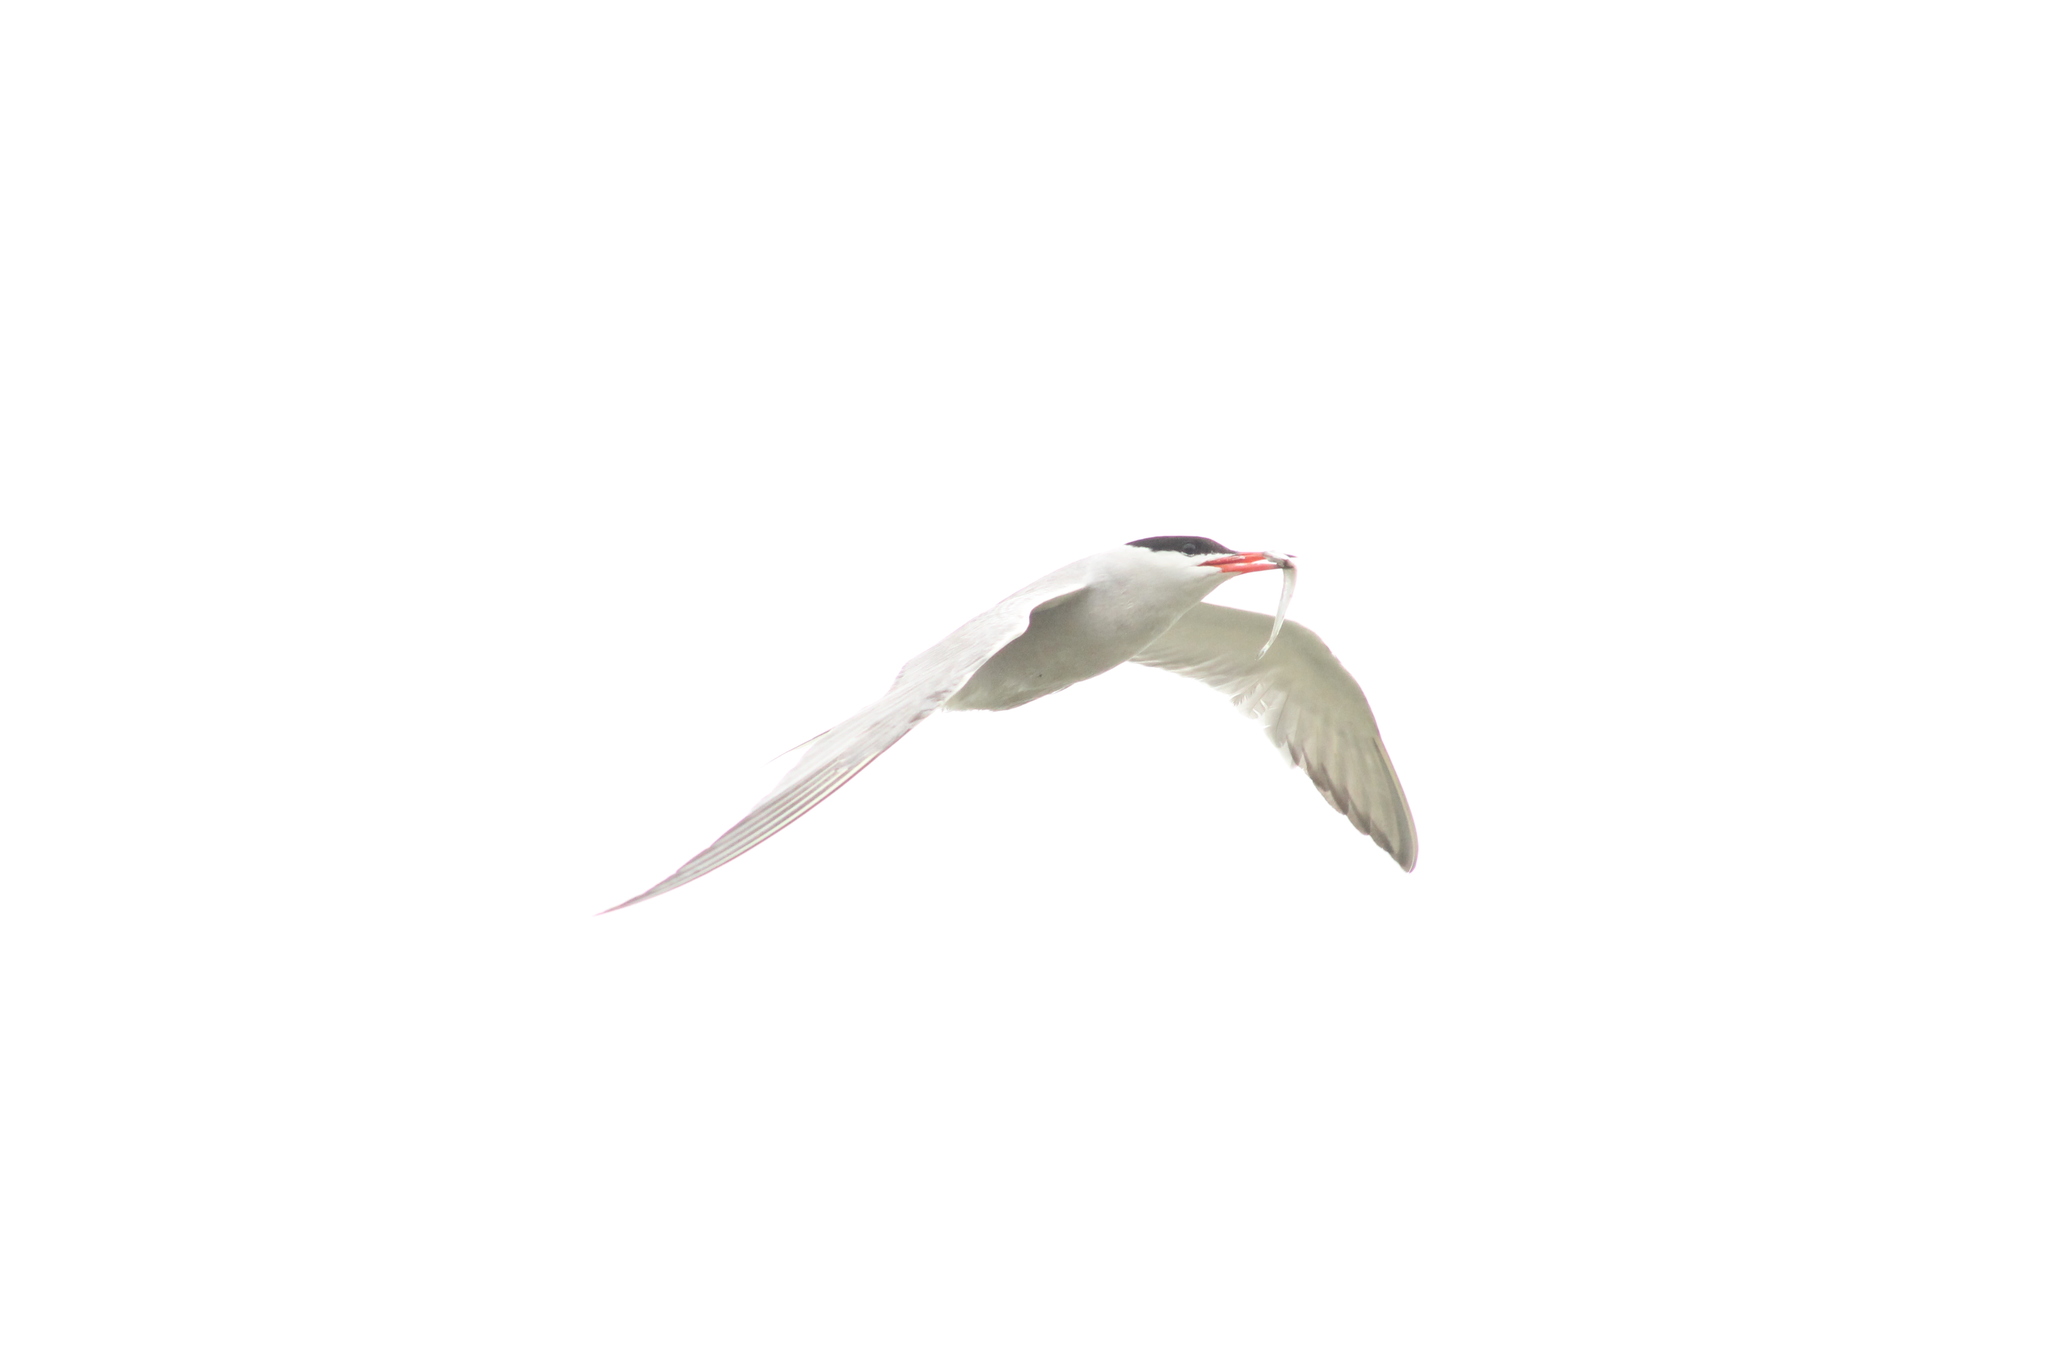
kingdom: Animalia
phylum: Chordata
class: Aves
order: Charadriiformes
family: Laridae
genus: Sterna
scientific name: Sterna hirundo
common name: Common tern
